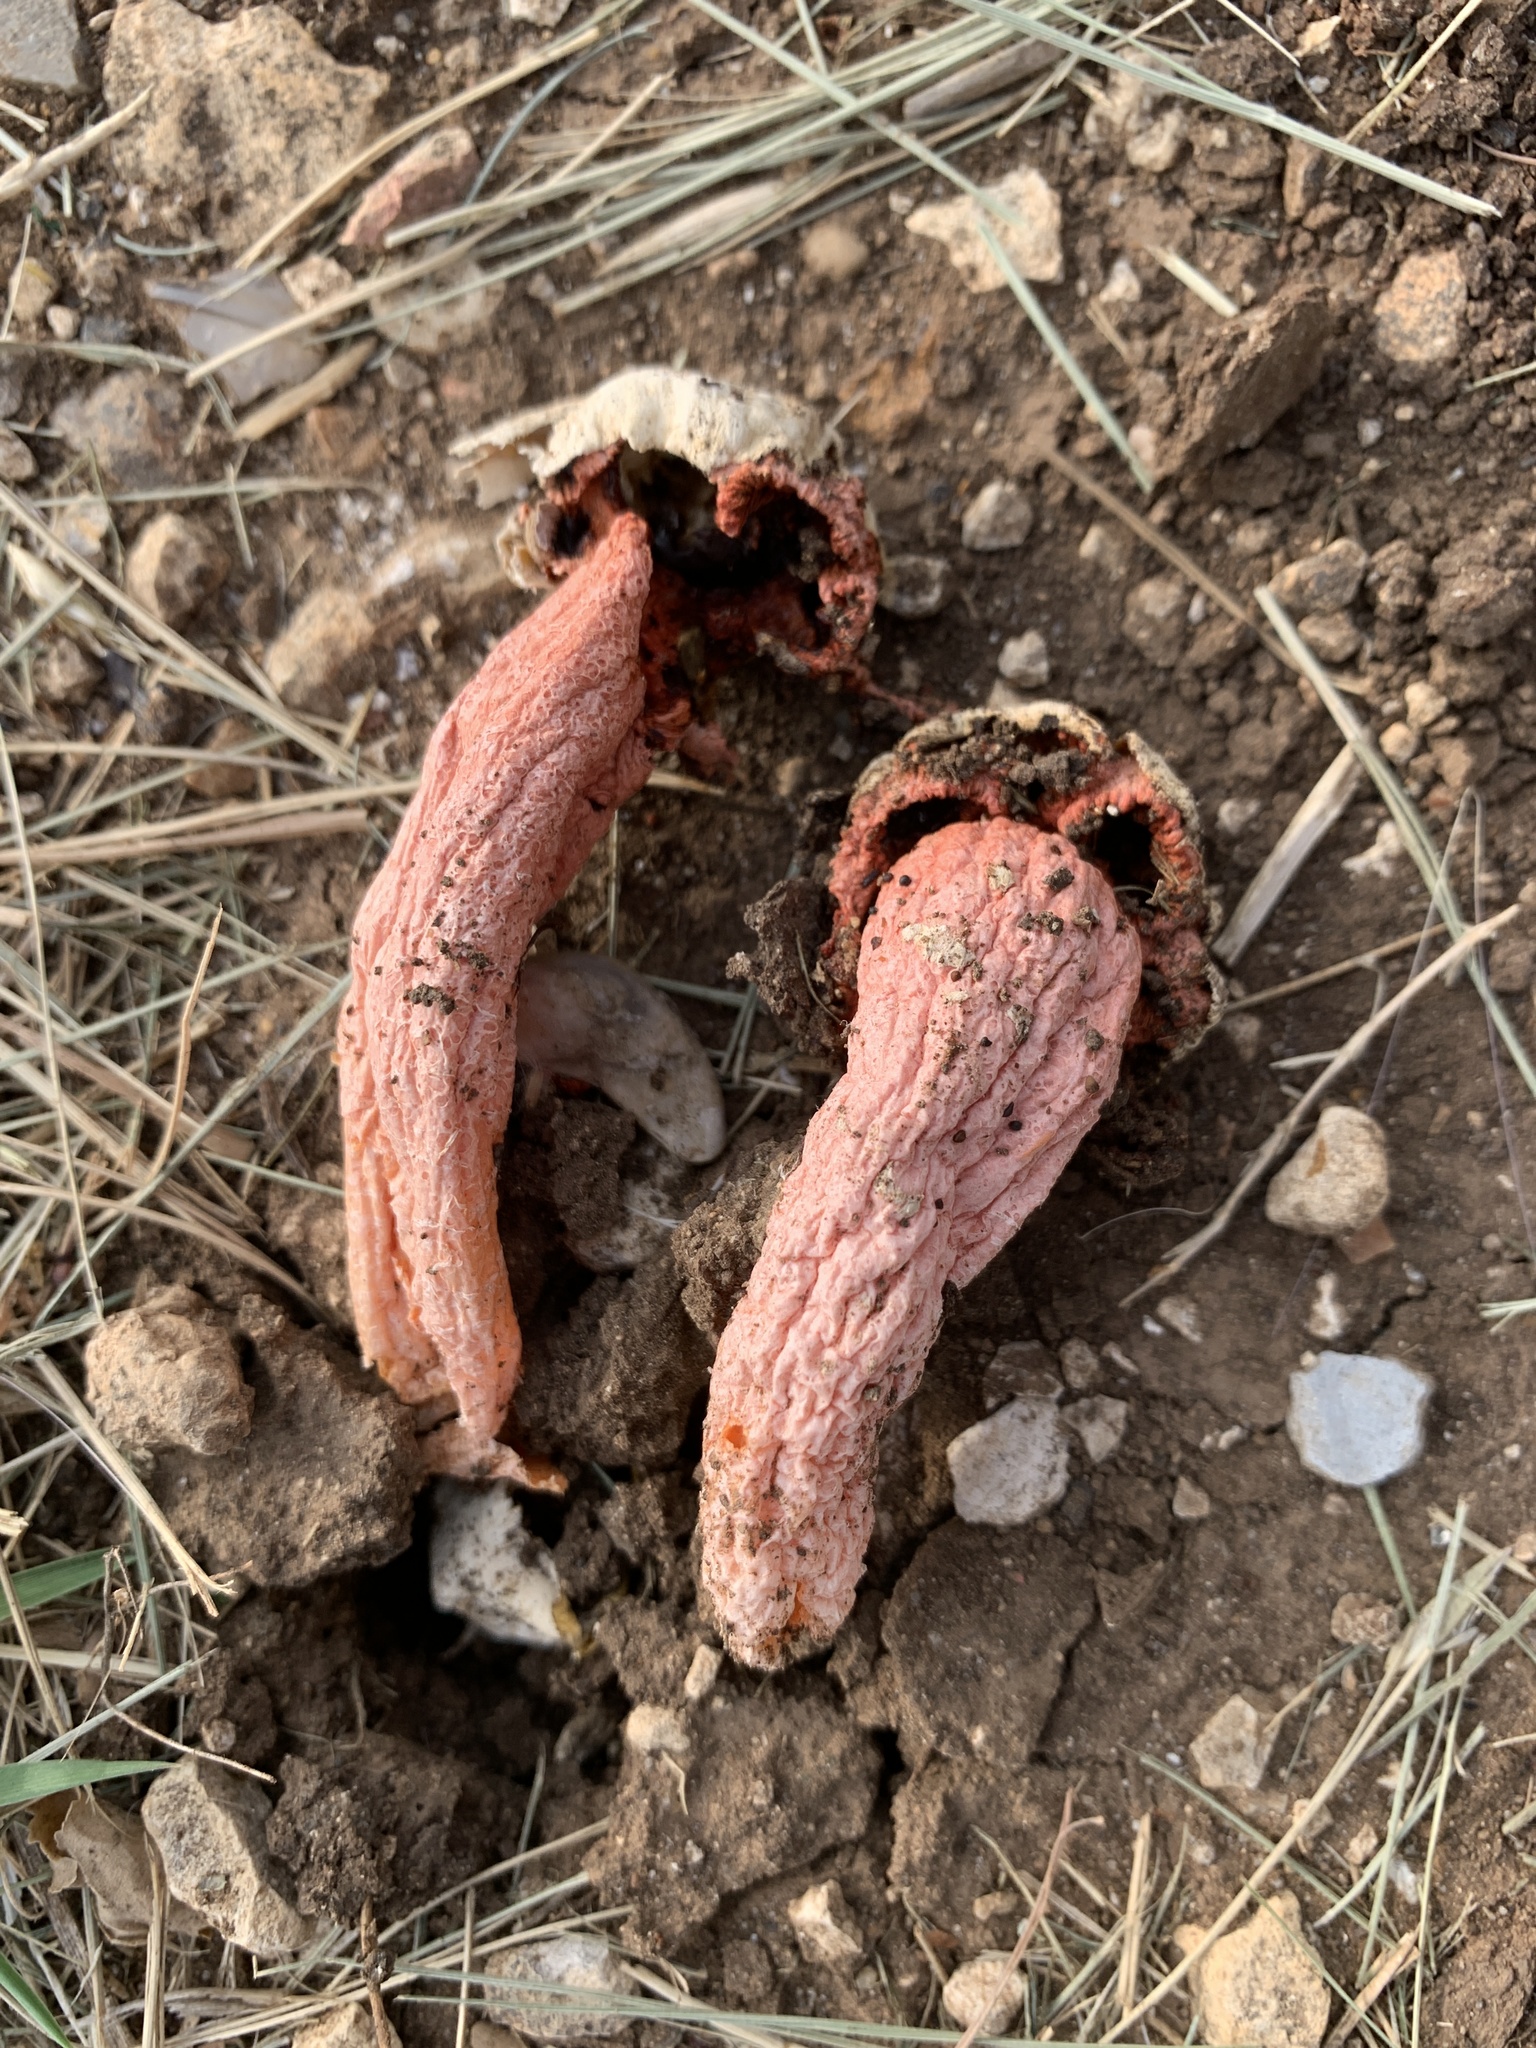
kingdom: Fungi
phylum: Basidiomycota
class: Agaricomycetes
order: Phallales
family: Phallaceae
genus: Lysurus
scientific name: Lysurus periphragmoides
